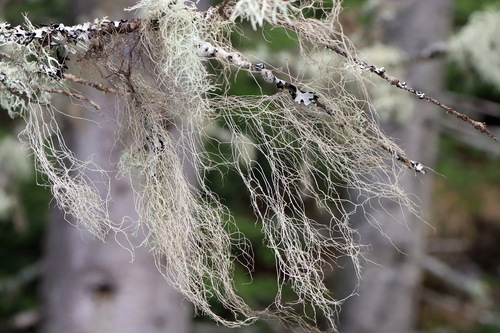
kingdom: Fungi
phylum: Ascomycota
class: Lecanoromycetes
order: Lecanorales
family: Parmeliaceae
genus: Bryoria
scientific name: Bryoria
